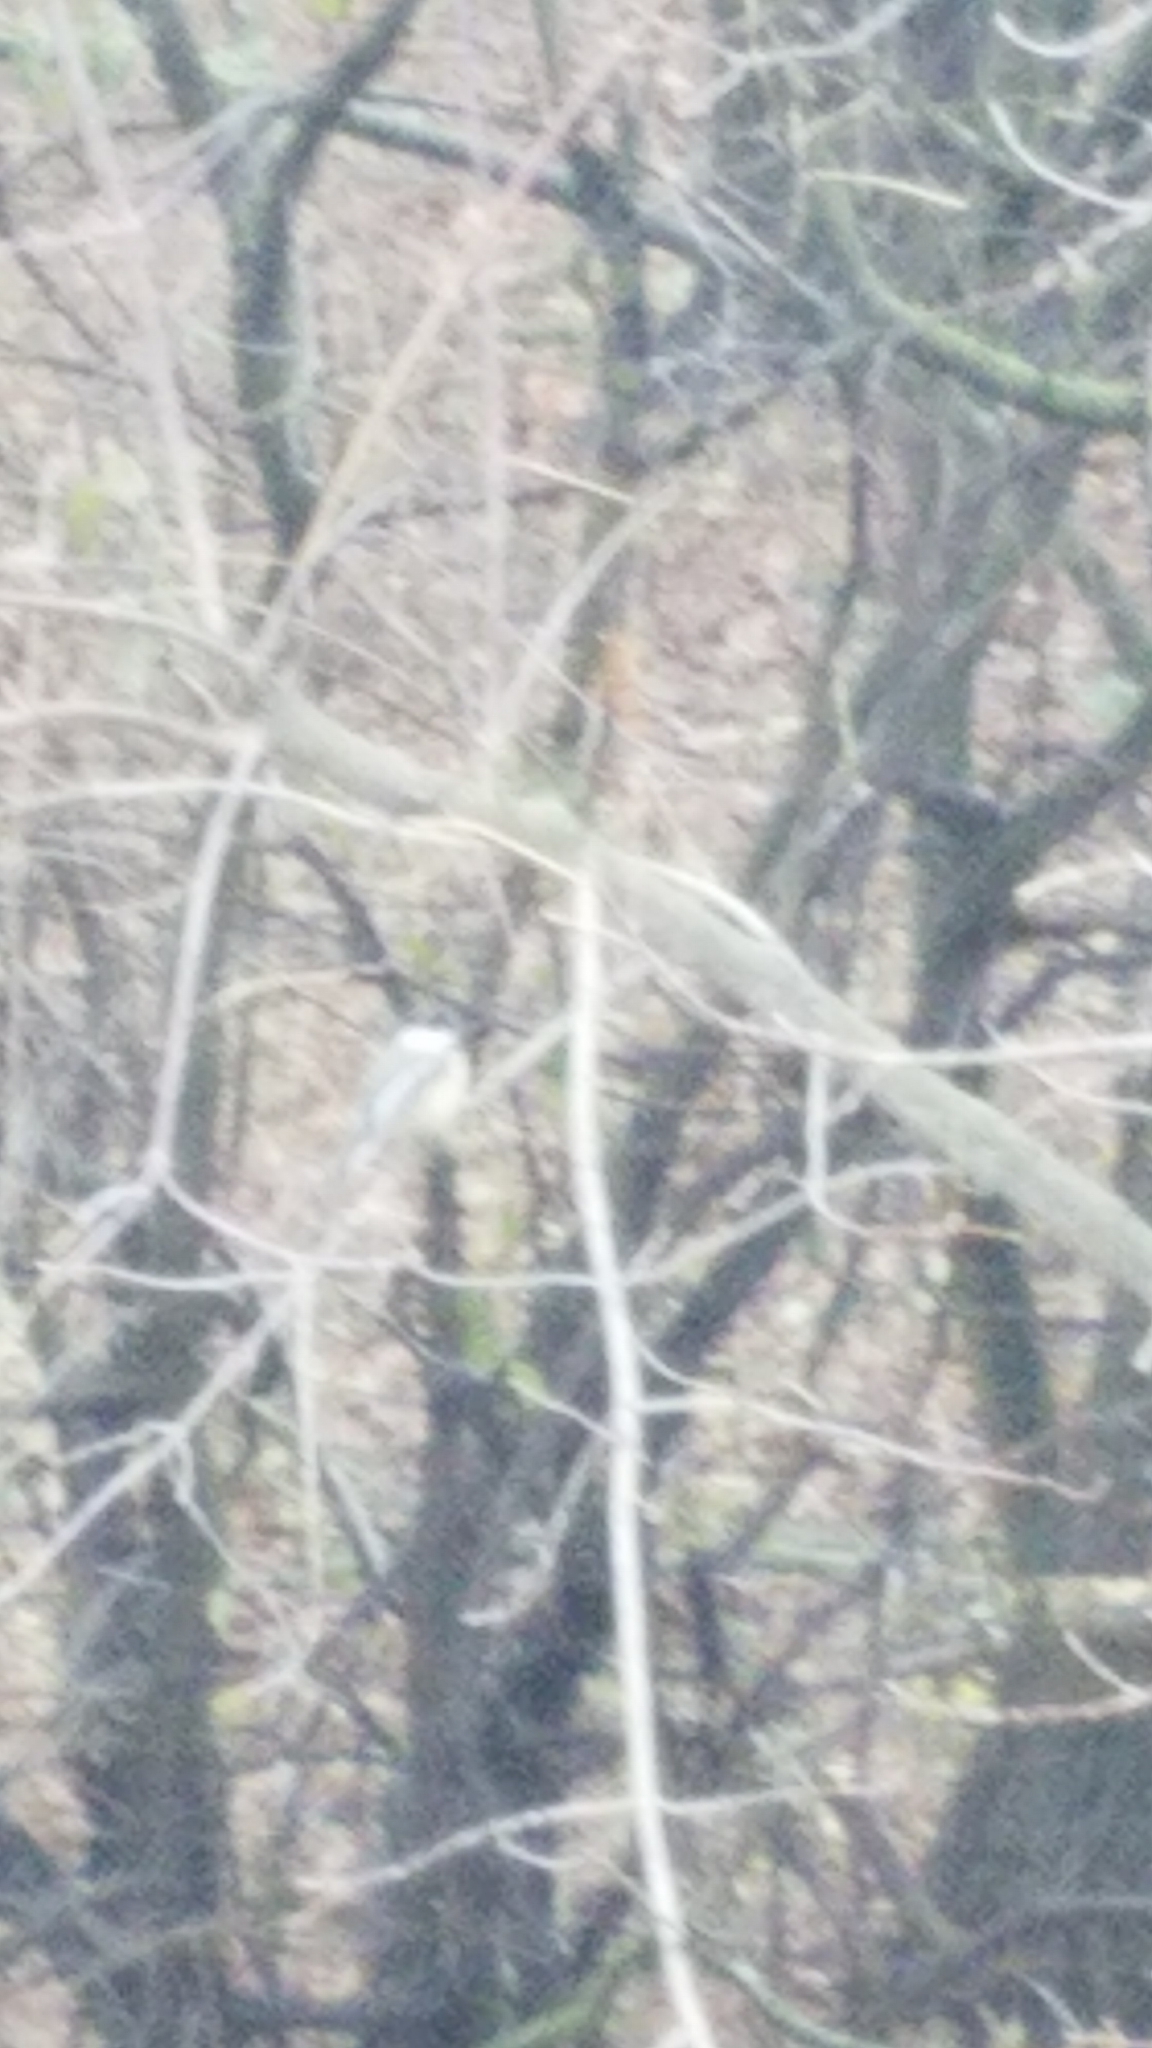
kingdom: Animalia
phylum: Chordata
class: Aves
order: Passeriformes
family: Paridae
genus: Poecile
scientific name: Poecile atricapillus
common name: Black-capped chickadee
